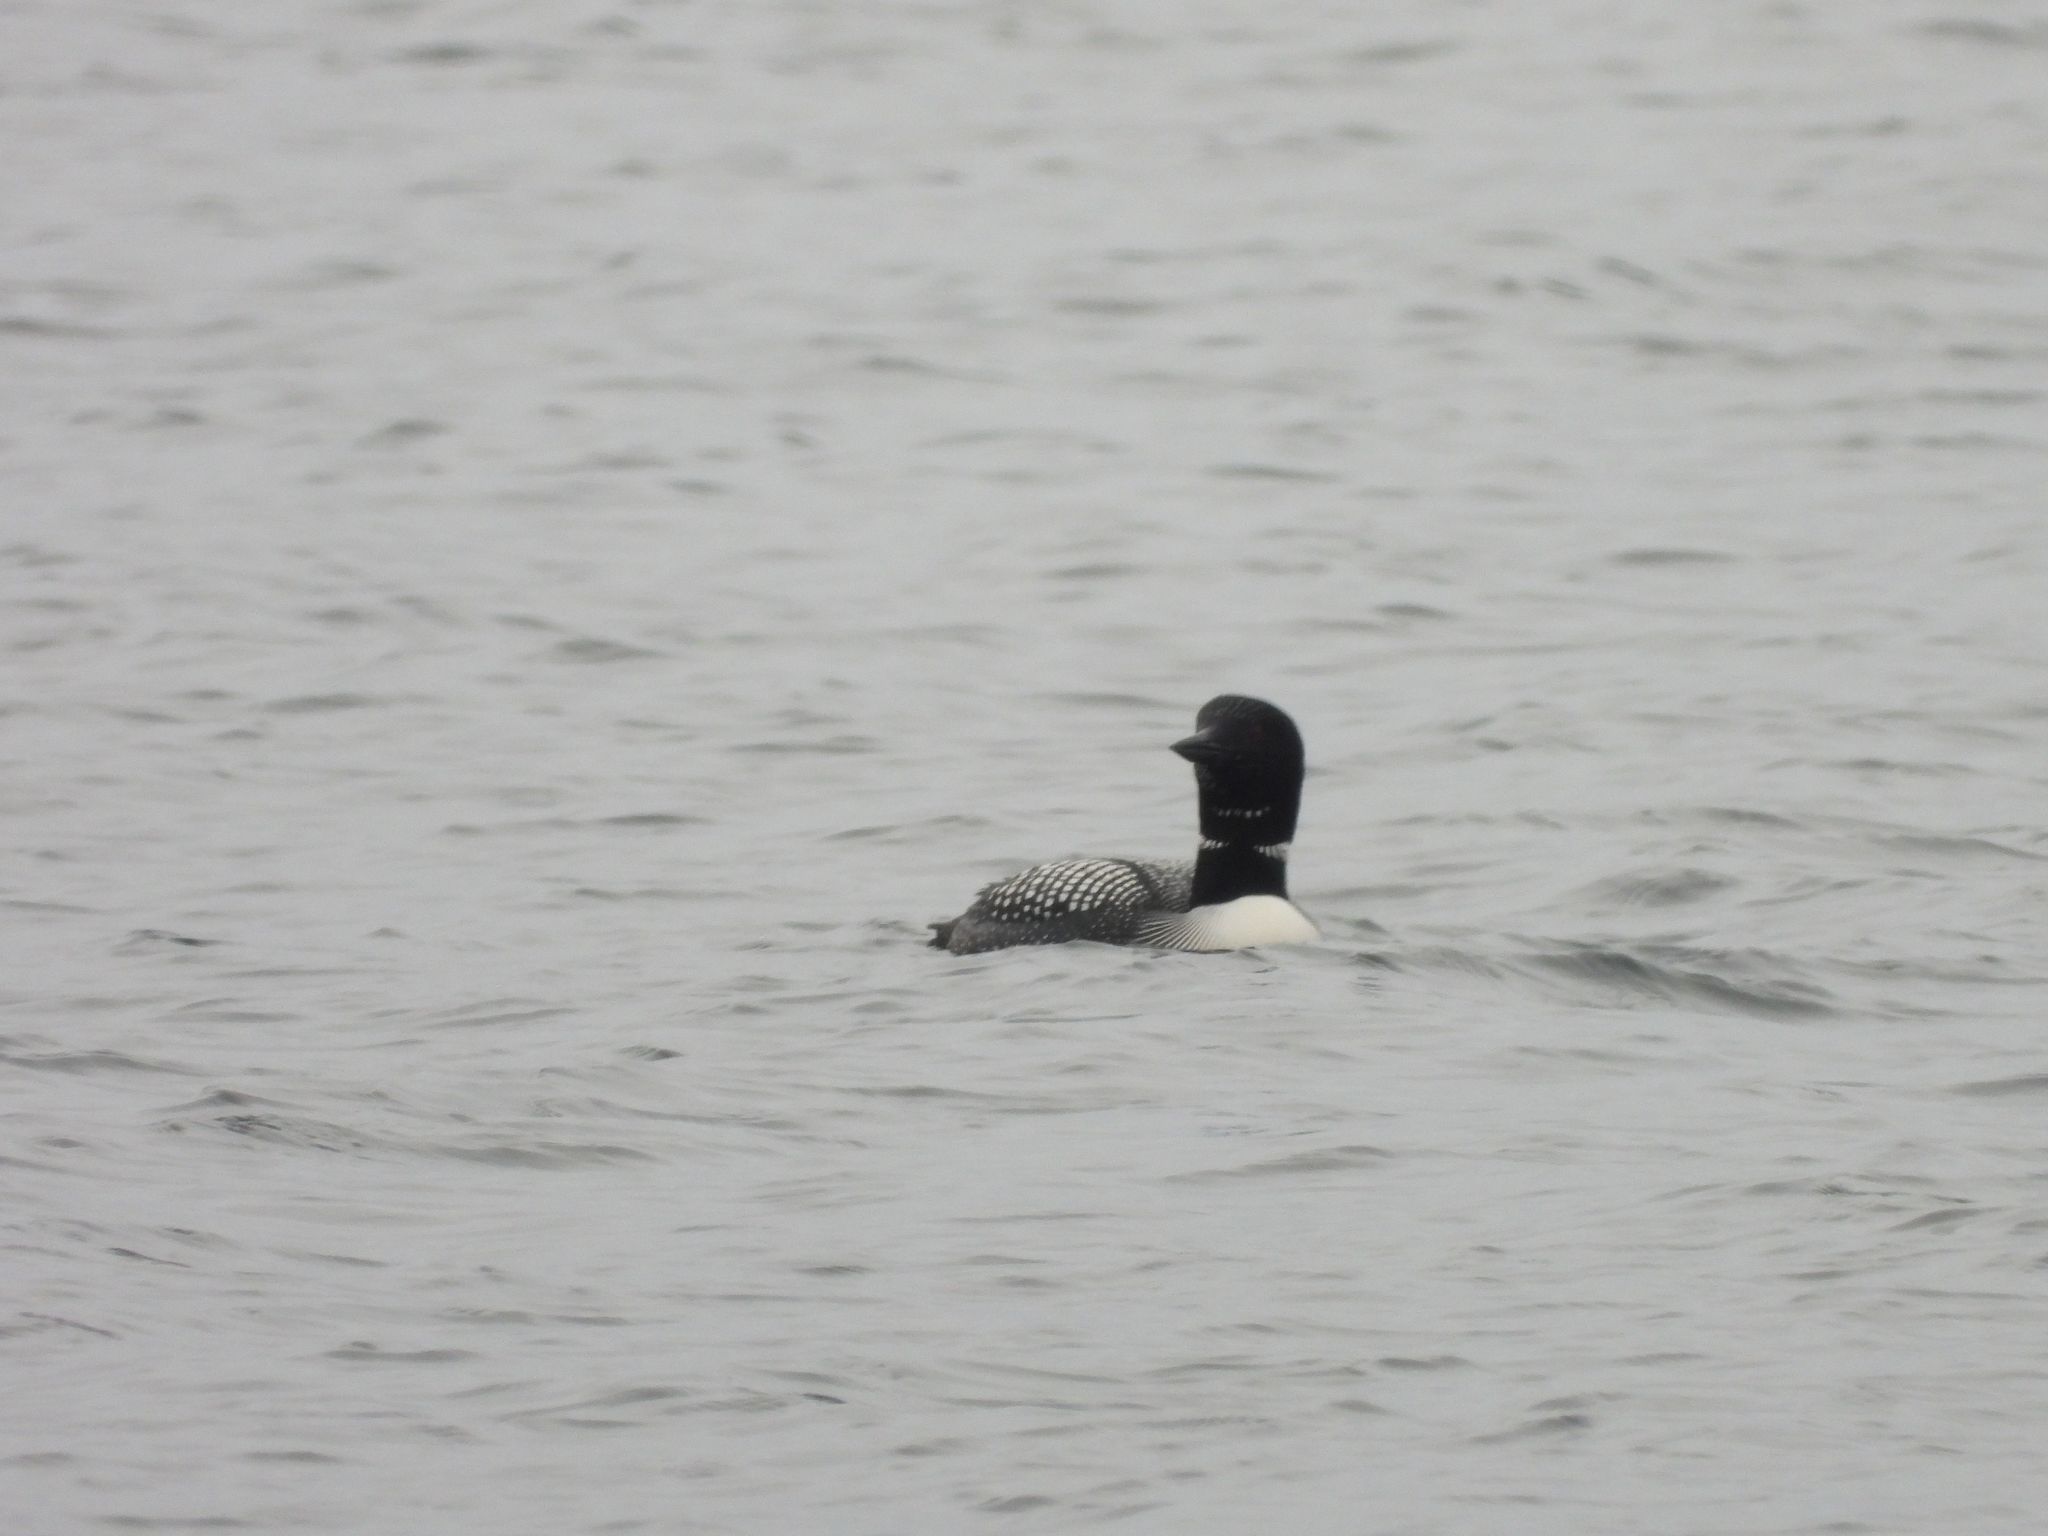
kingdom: Animalia
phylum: Chordata
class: Aves
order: Gaviiformes
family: Gaviidae
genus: Gavia
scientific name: Gavia immer
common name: Common loon
